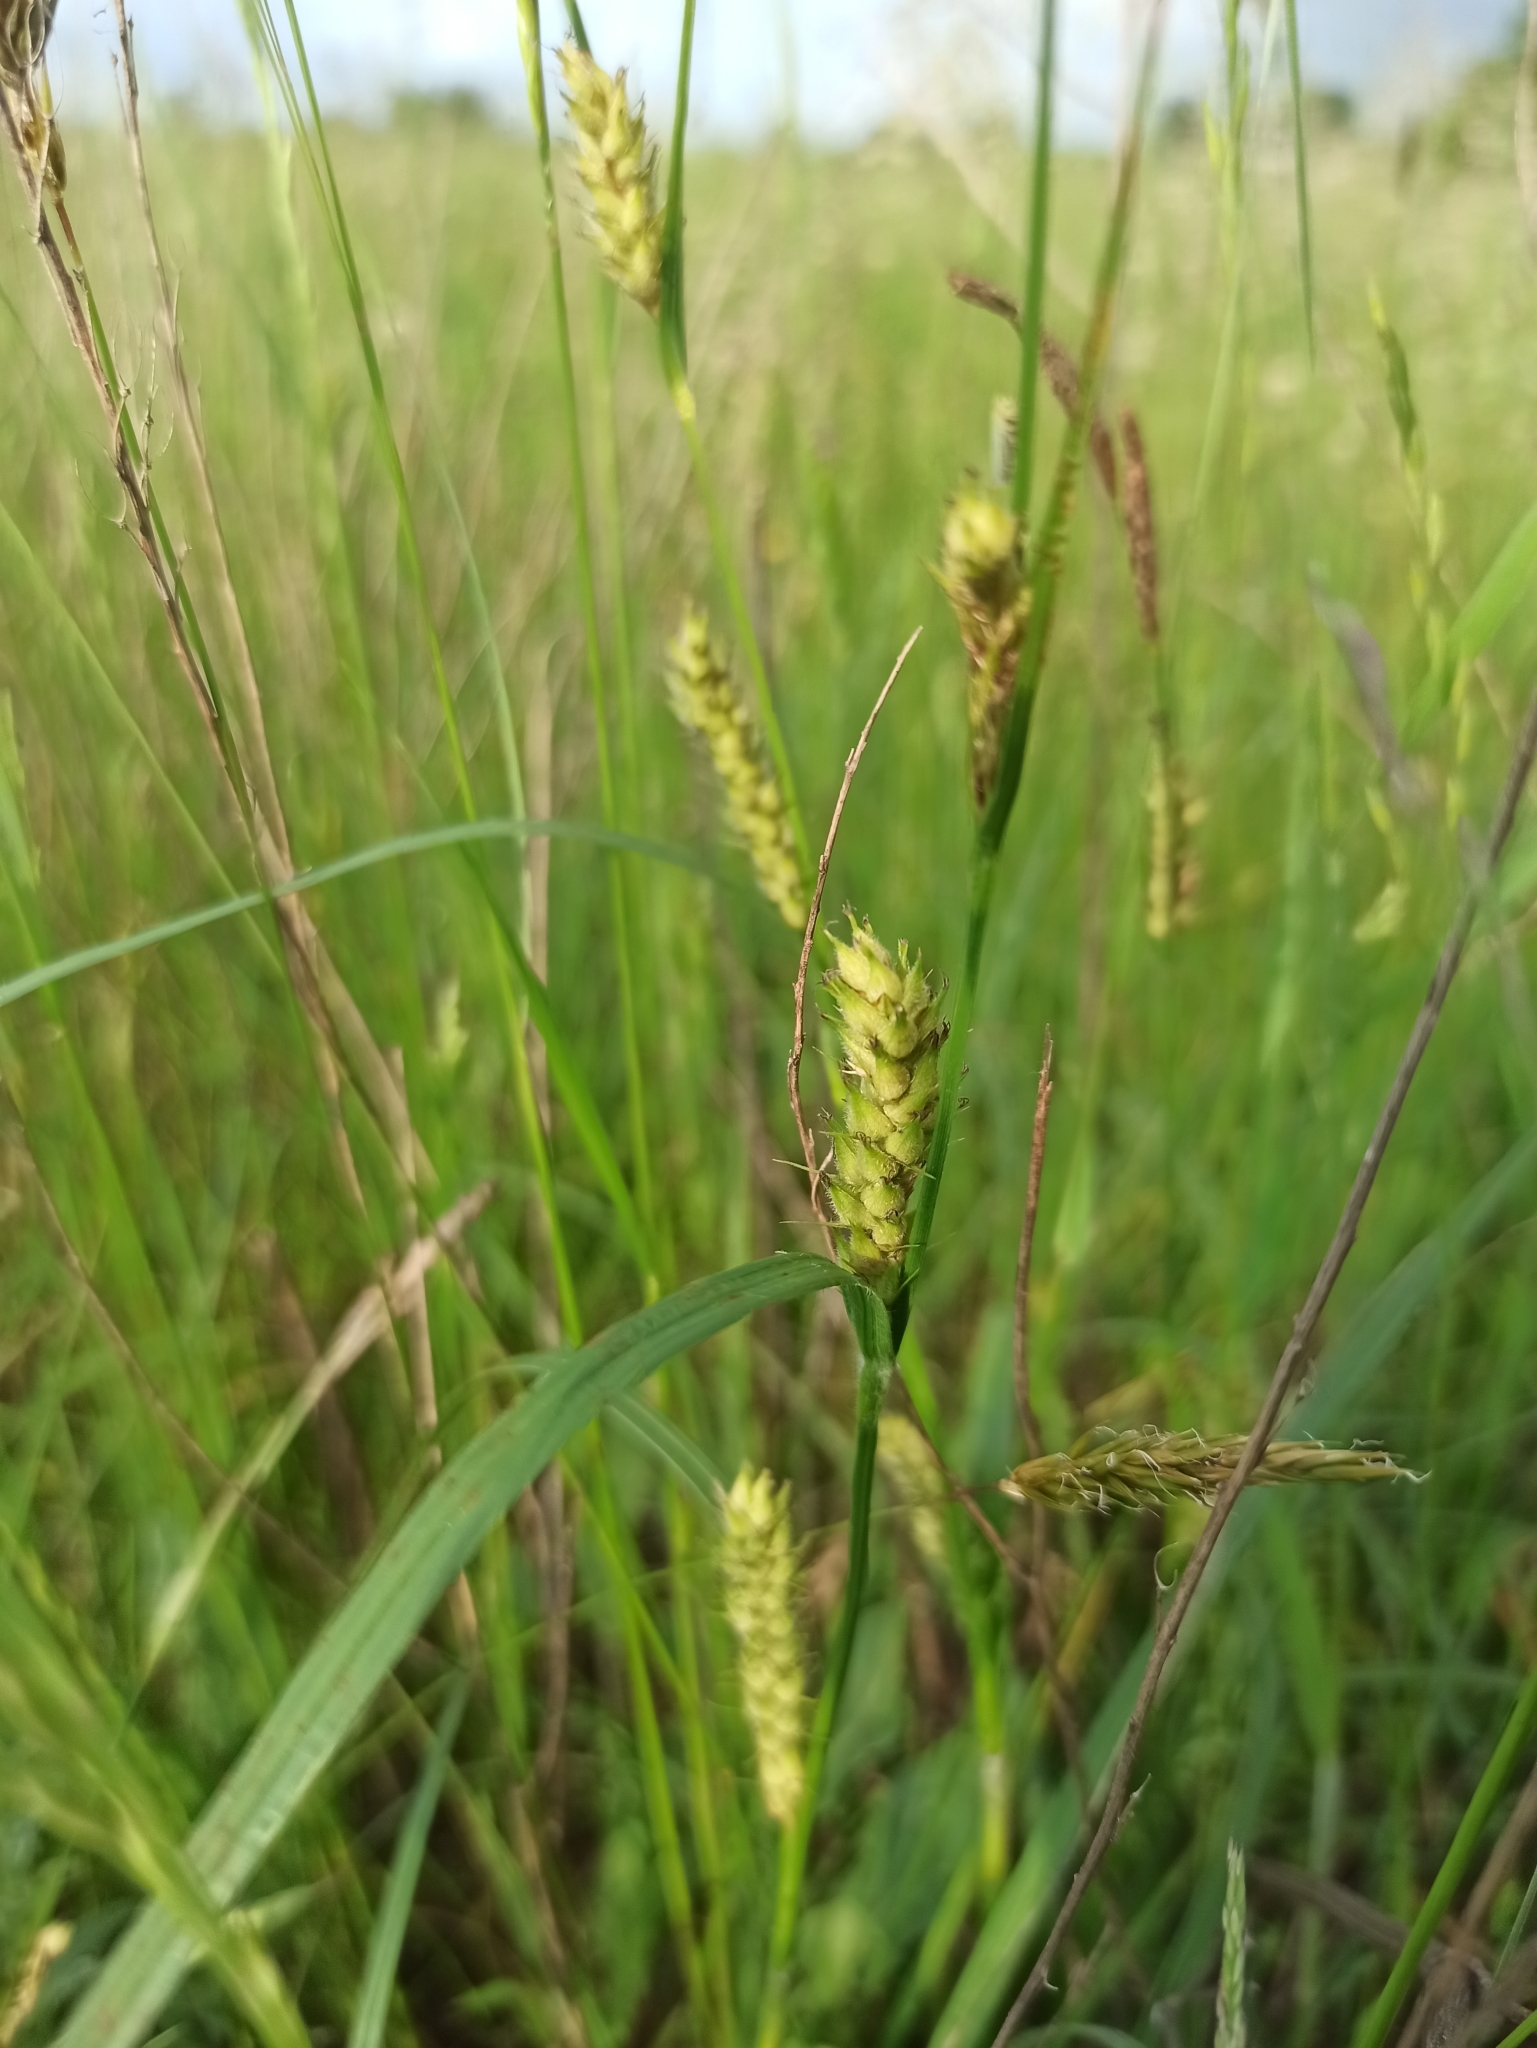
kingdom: Plantae
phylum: Tracheophyta
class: Liliopsida
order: Poales
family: Cyperaceae
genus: Carex
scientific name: Carex hirta
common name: Hairy sedge
